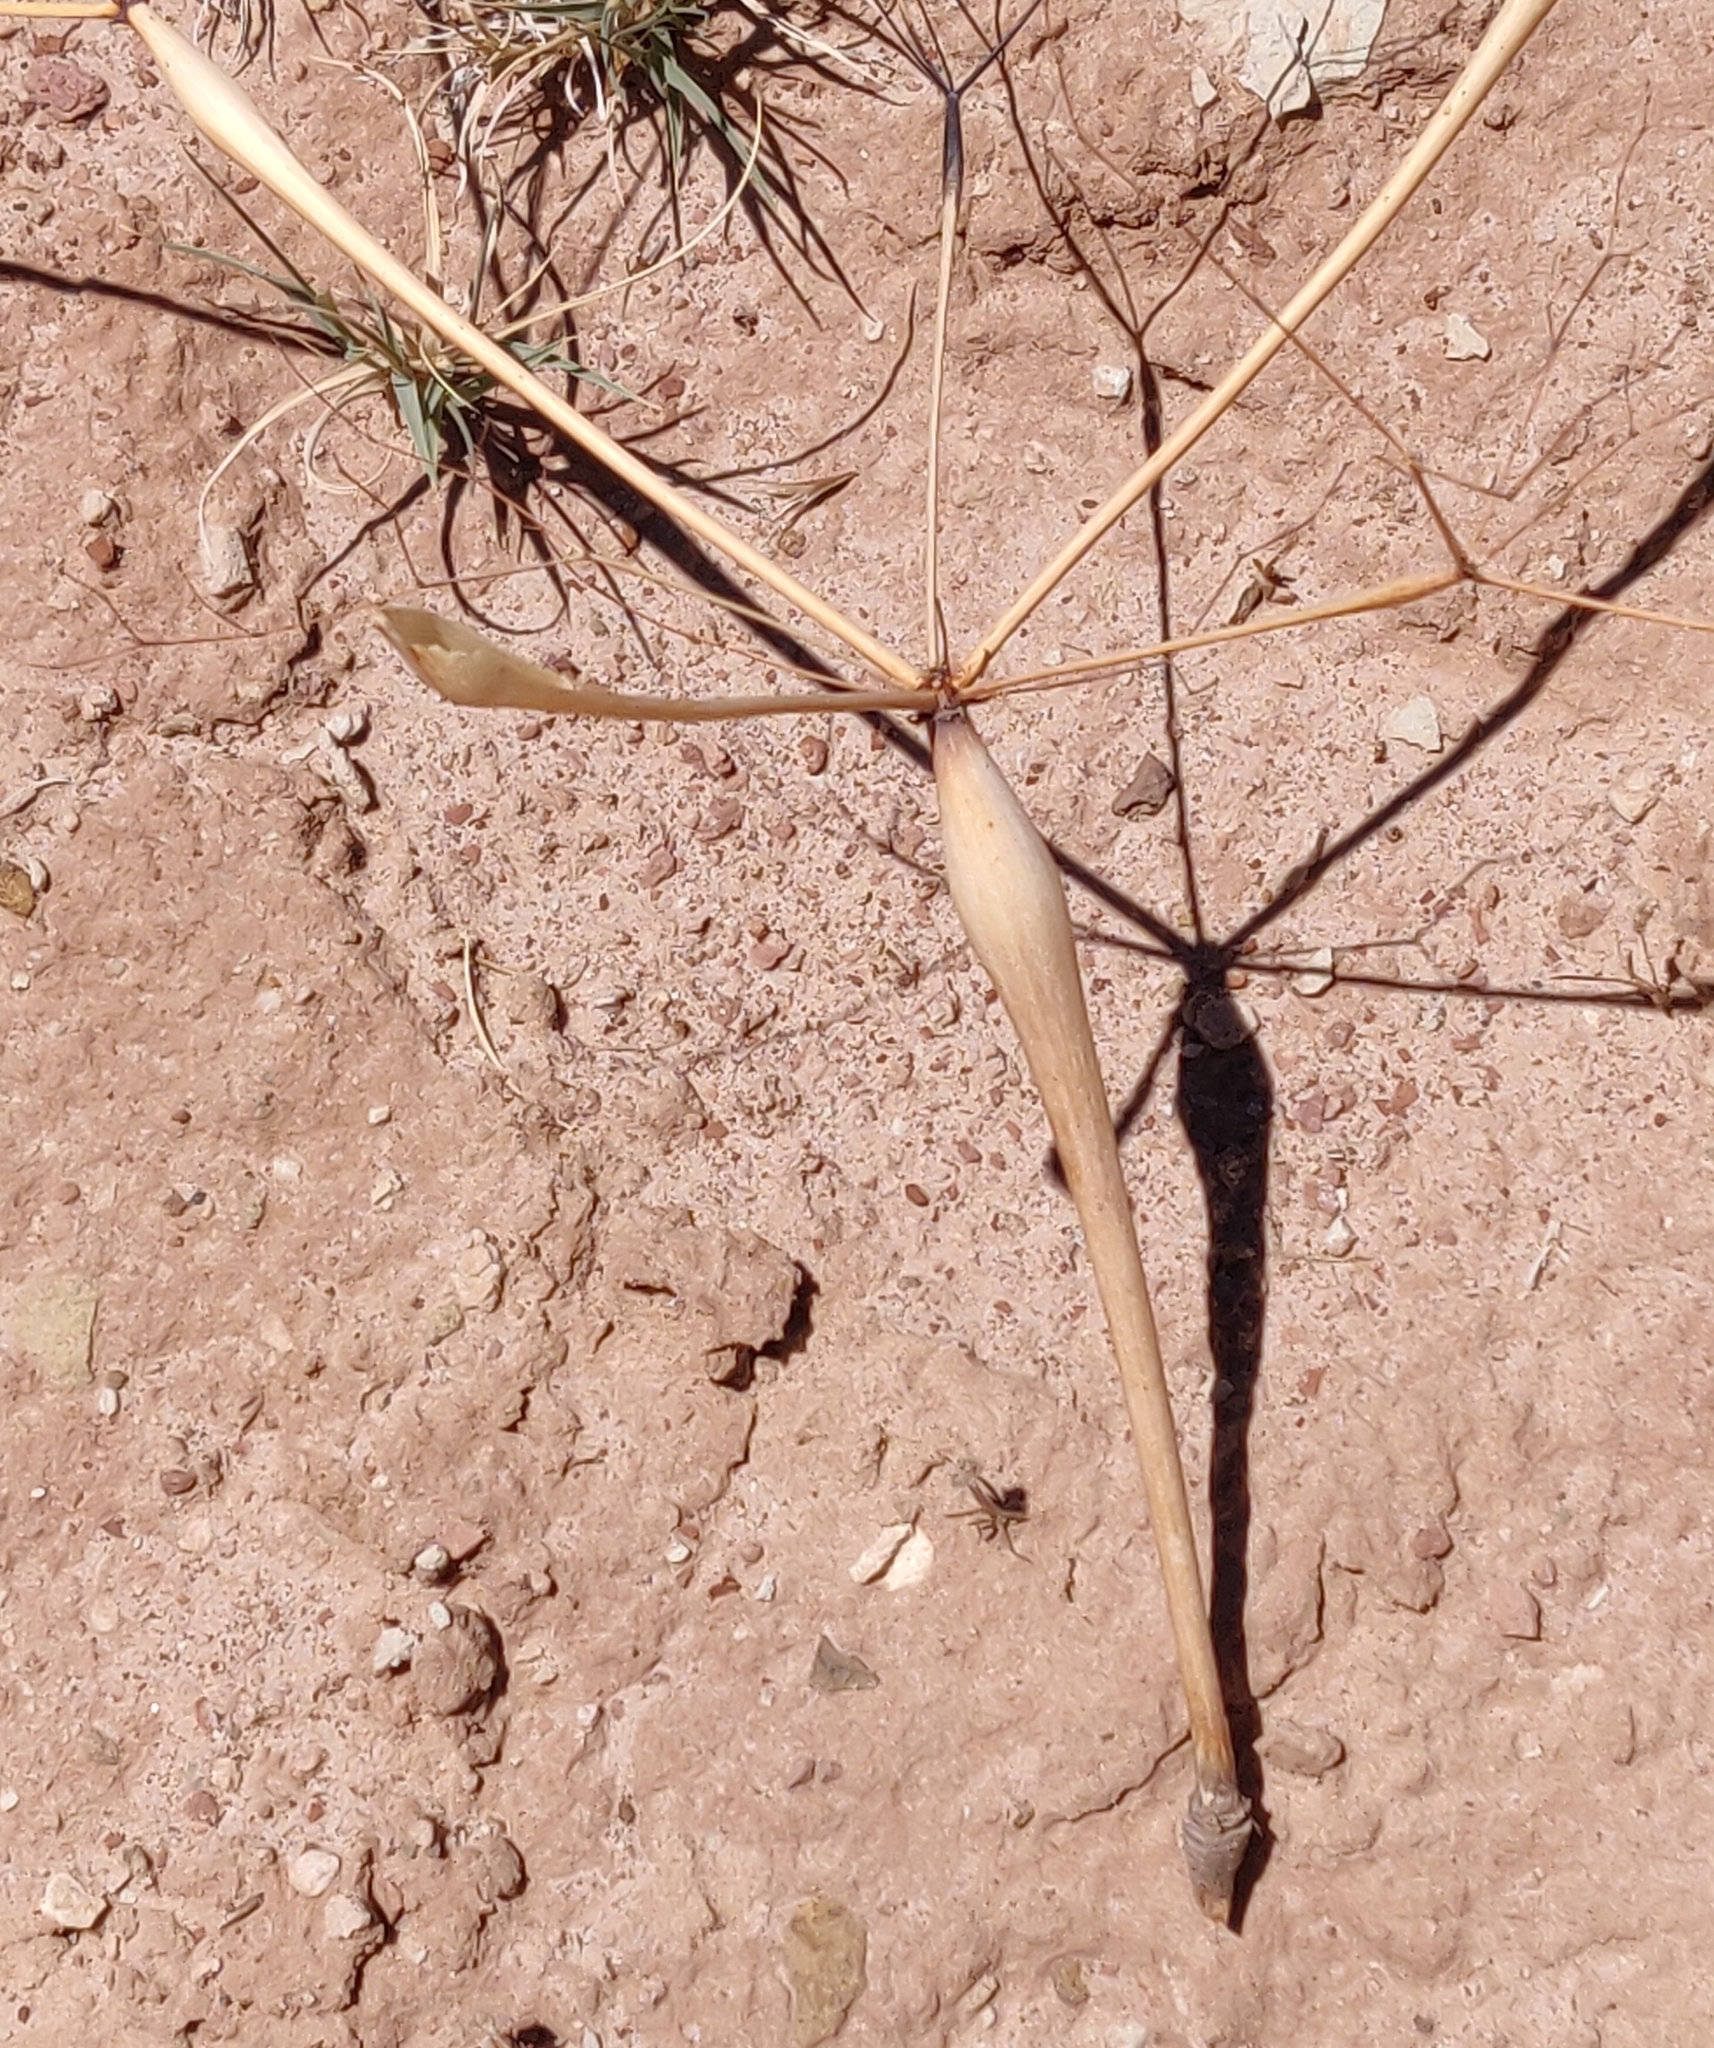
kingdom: Plantae
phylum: Tracheophyta
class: Magnoliopsida
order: Caryophyllales
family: Polygonaceae
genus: Eriogonum
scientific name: Eriogonum inflatum
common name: Desert trumpet
